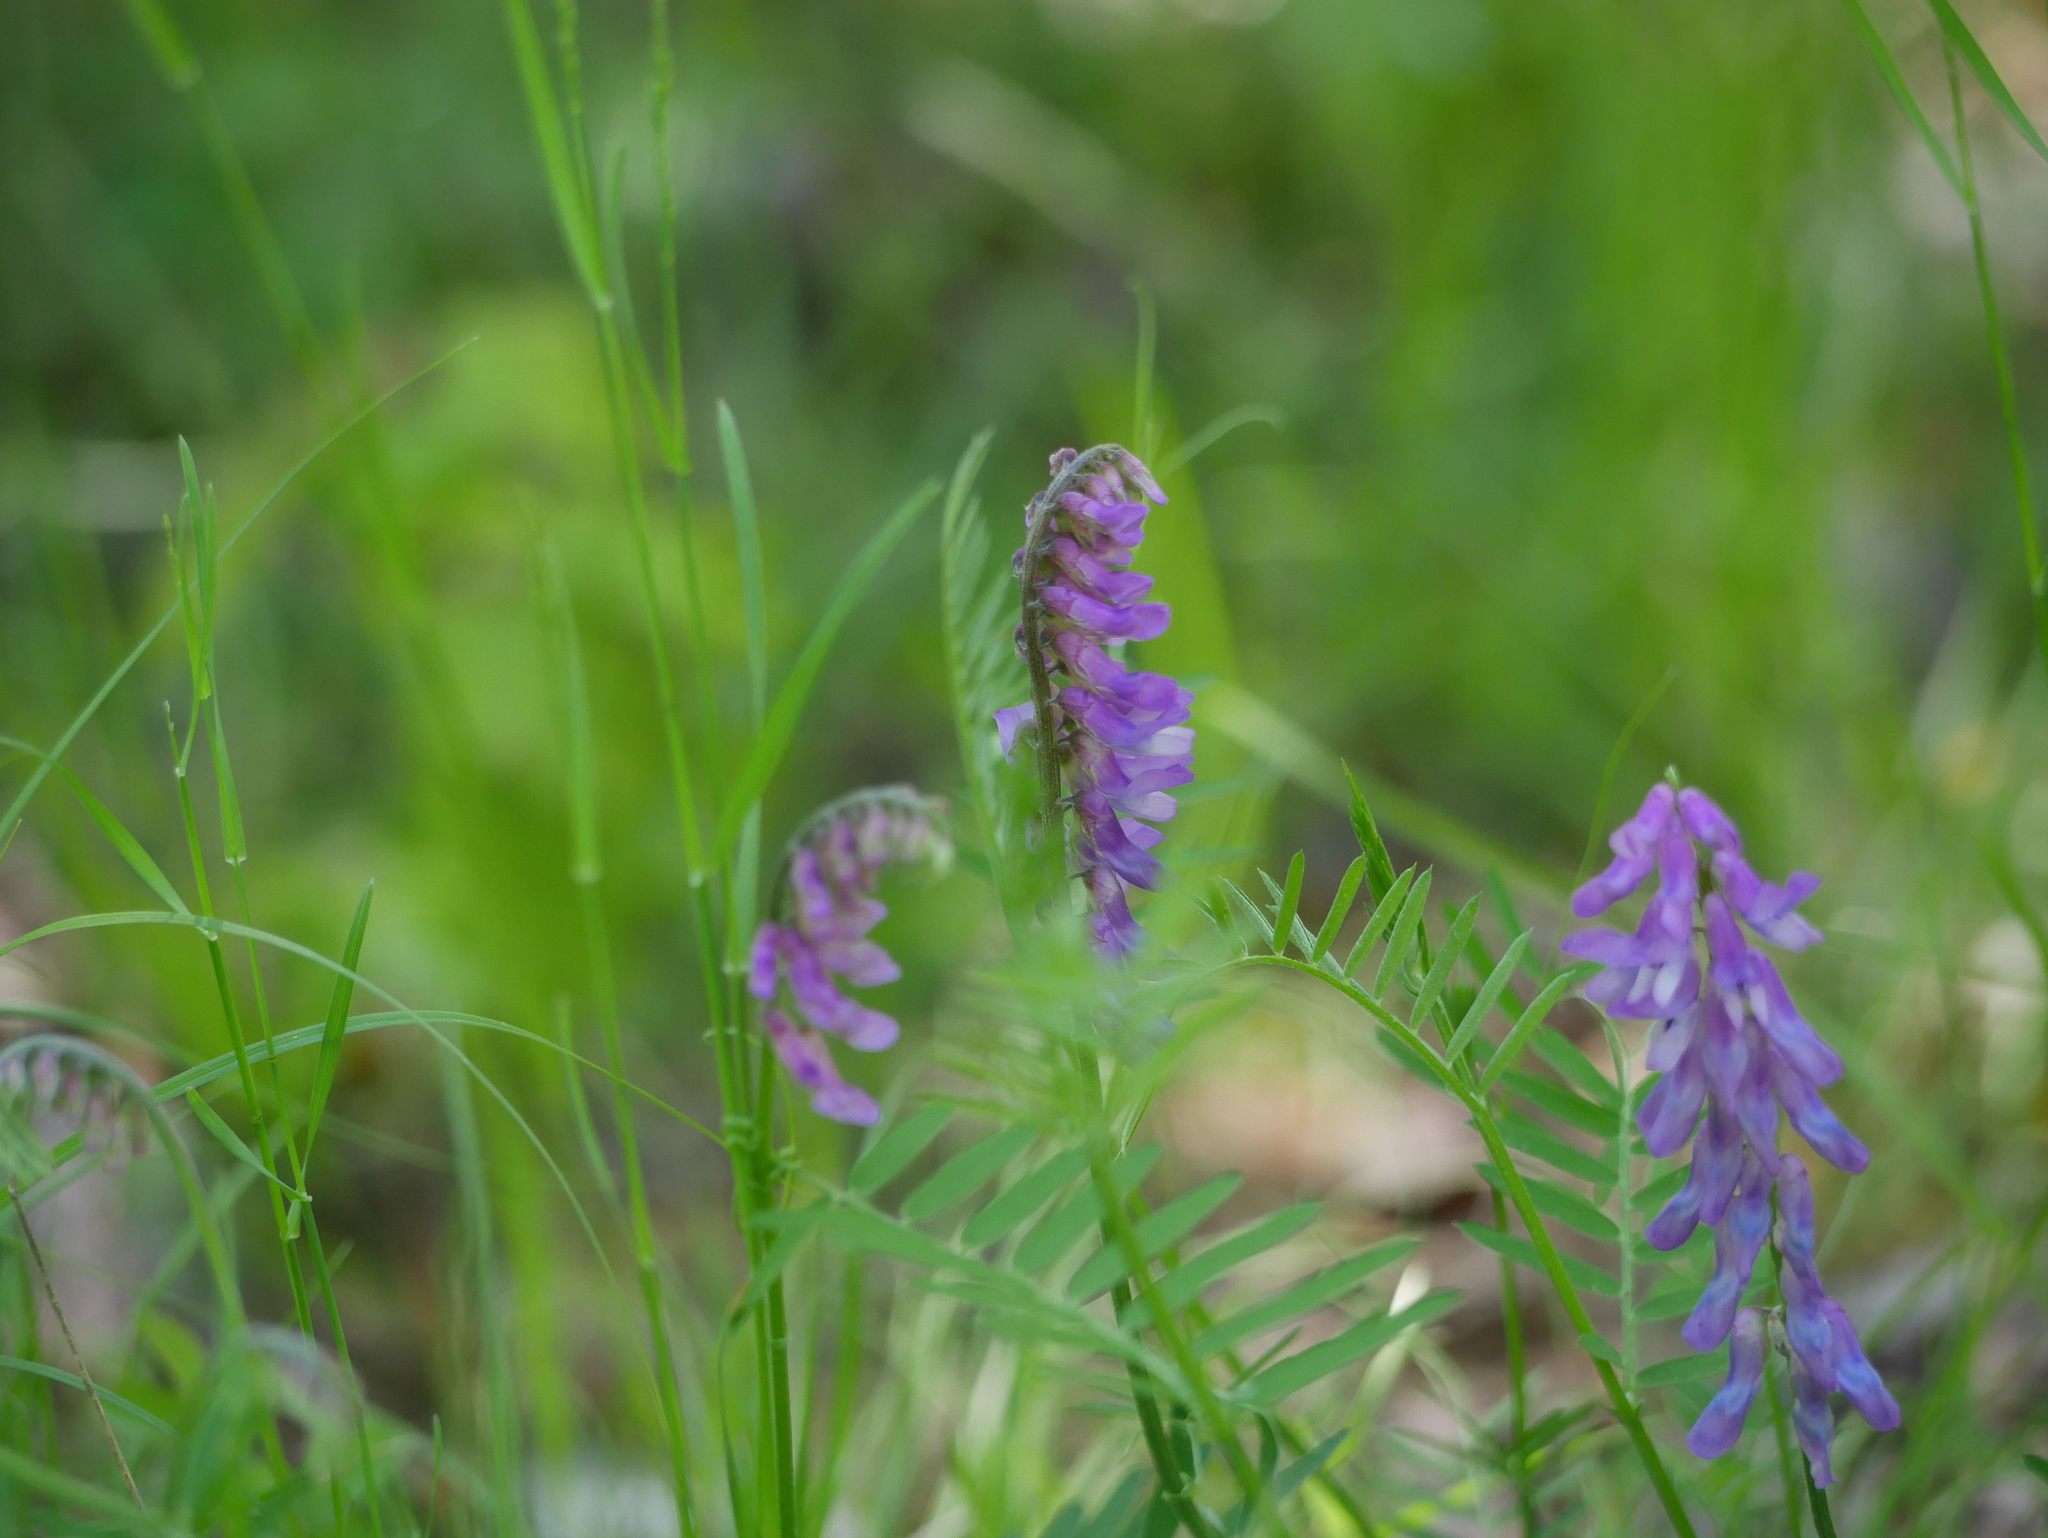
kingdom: Plantae
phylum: Tracheophyta
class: Magnoliopsida
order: Fabales
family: Fabaceae
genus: Vicia
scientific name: Vicia cracca
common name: Bird vetch
